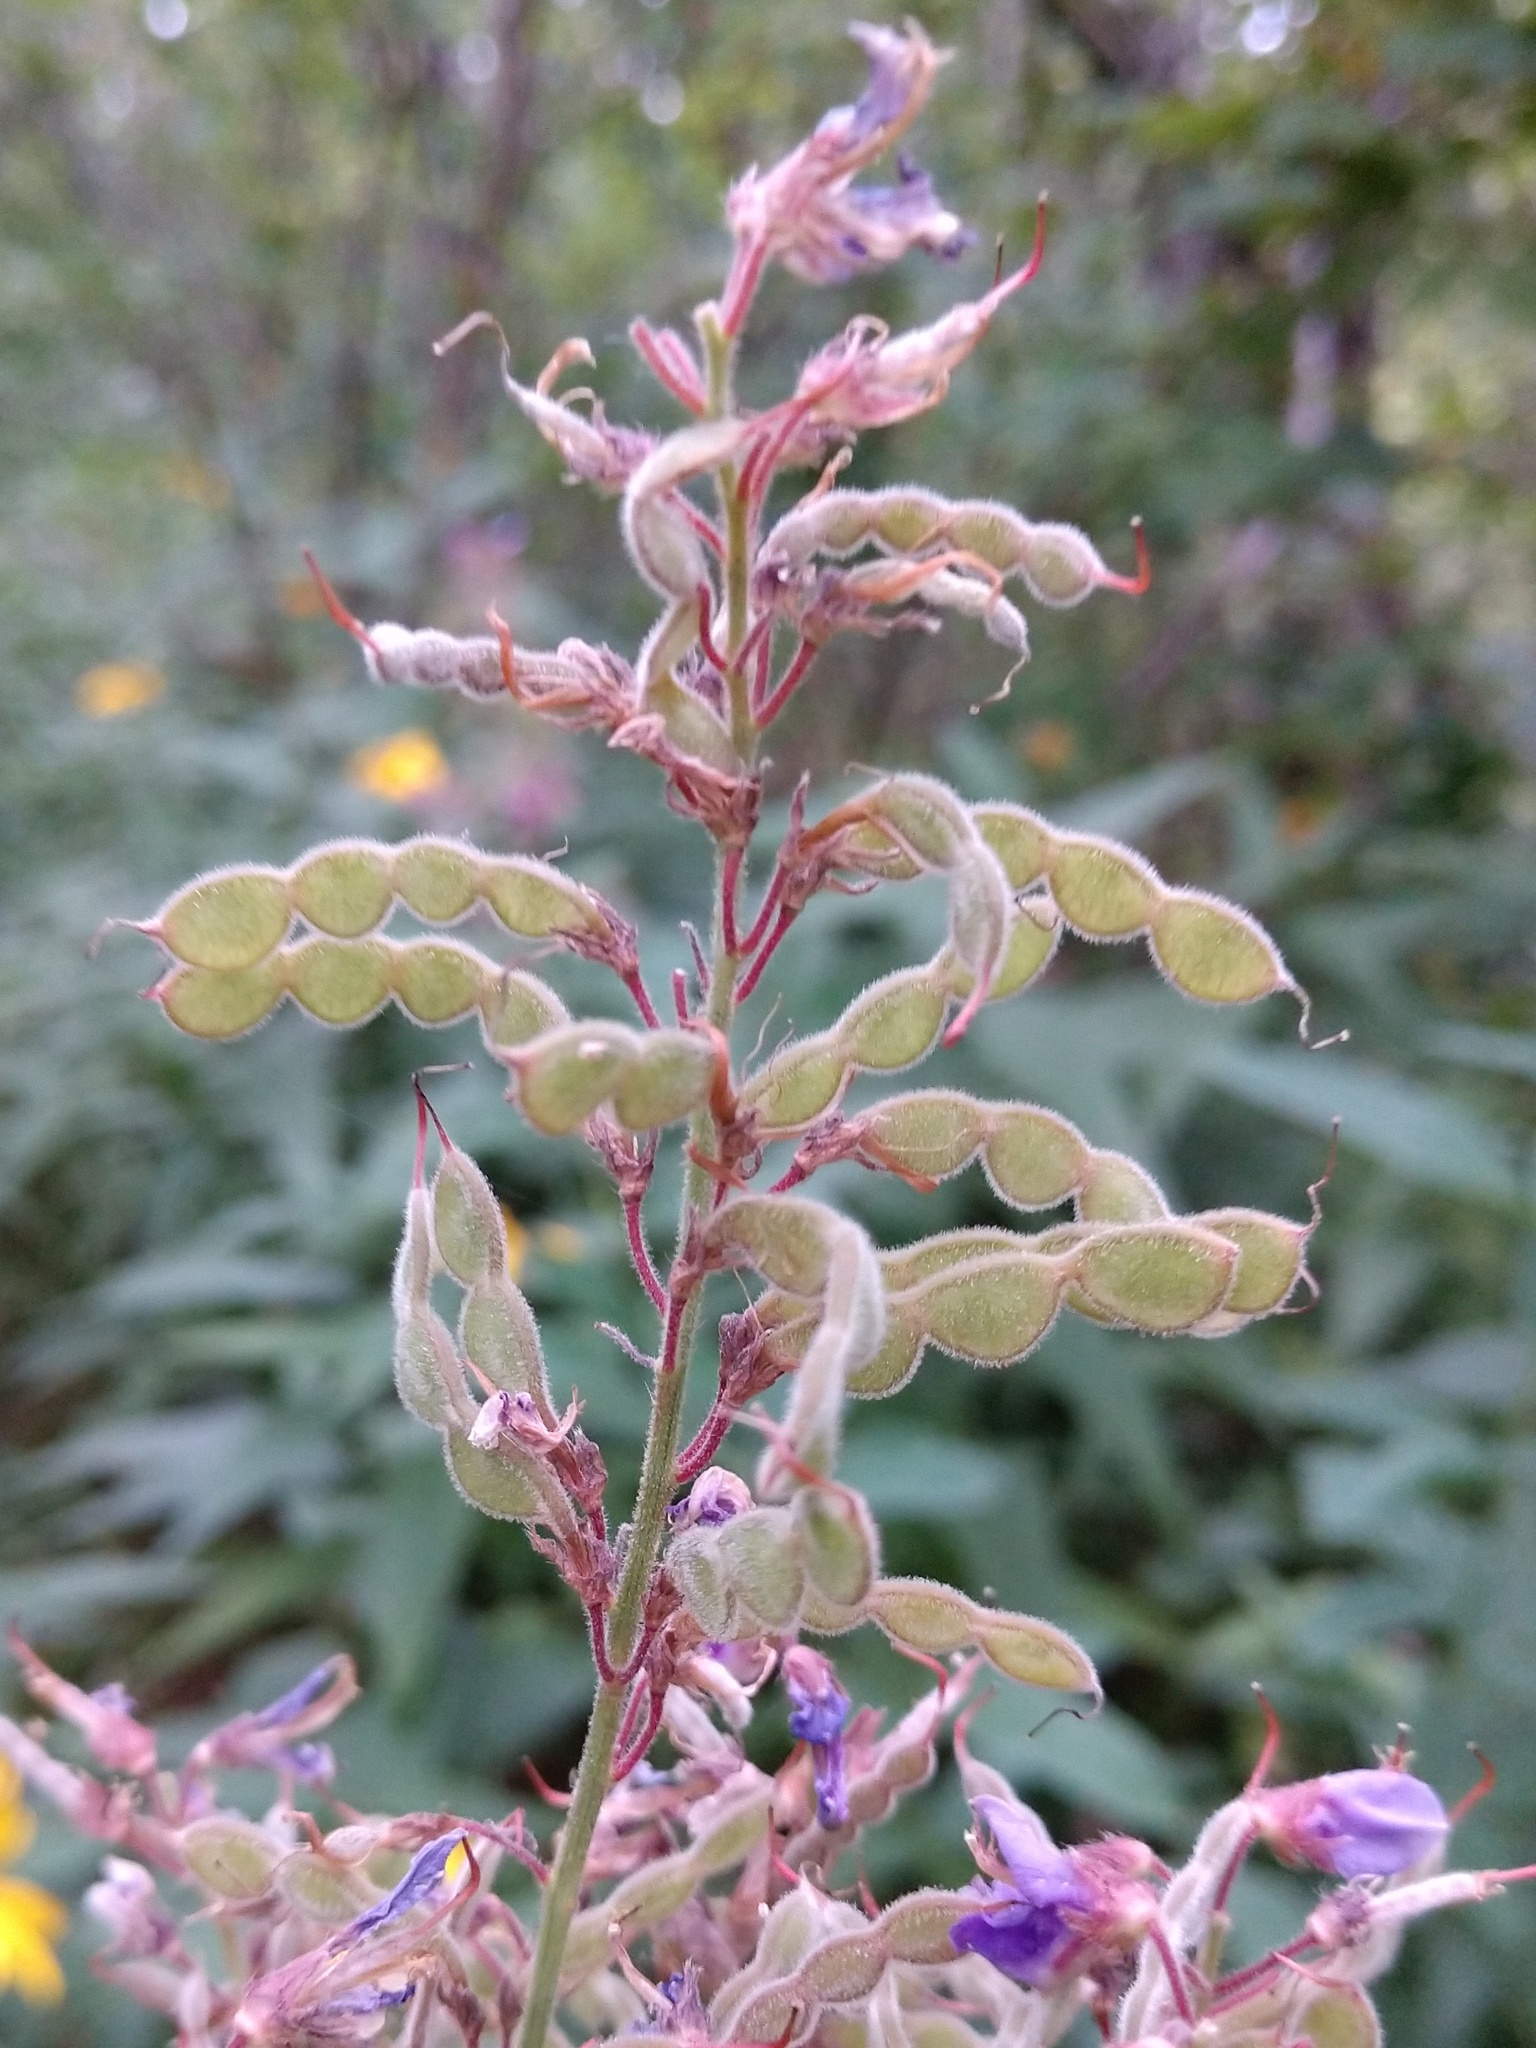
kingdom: Plantae
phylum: Tracheophyta
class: Magnoliopsida
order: Fabales
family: Fabaceae
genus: Desmodium
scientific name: Desmodium canadense
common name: Canada tick-trefoil
